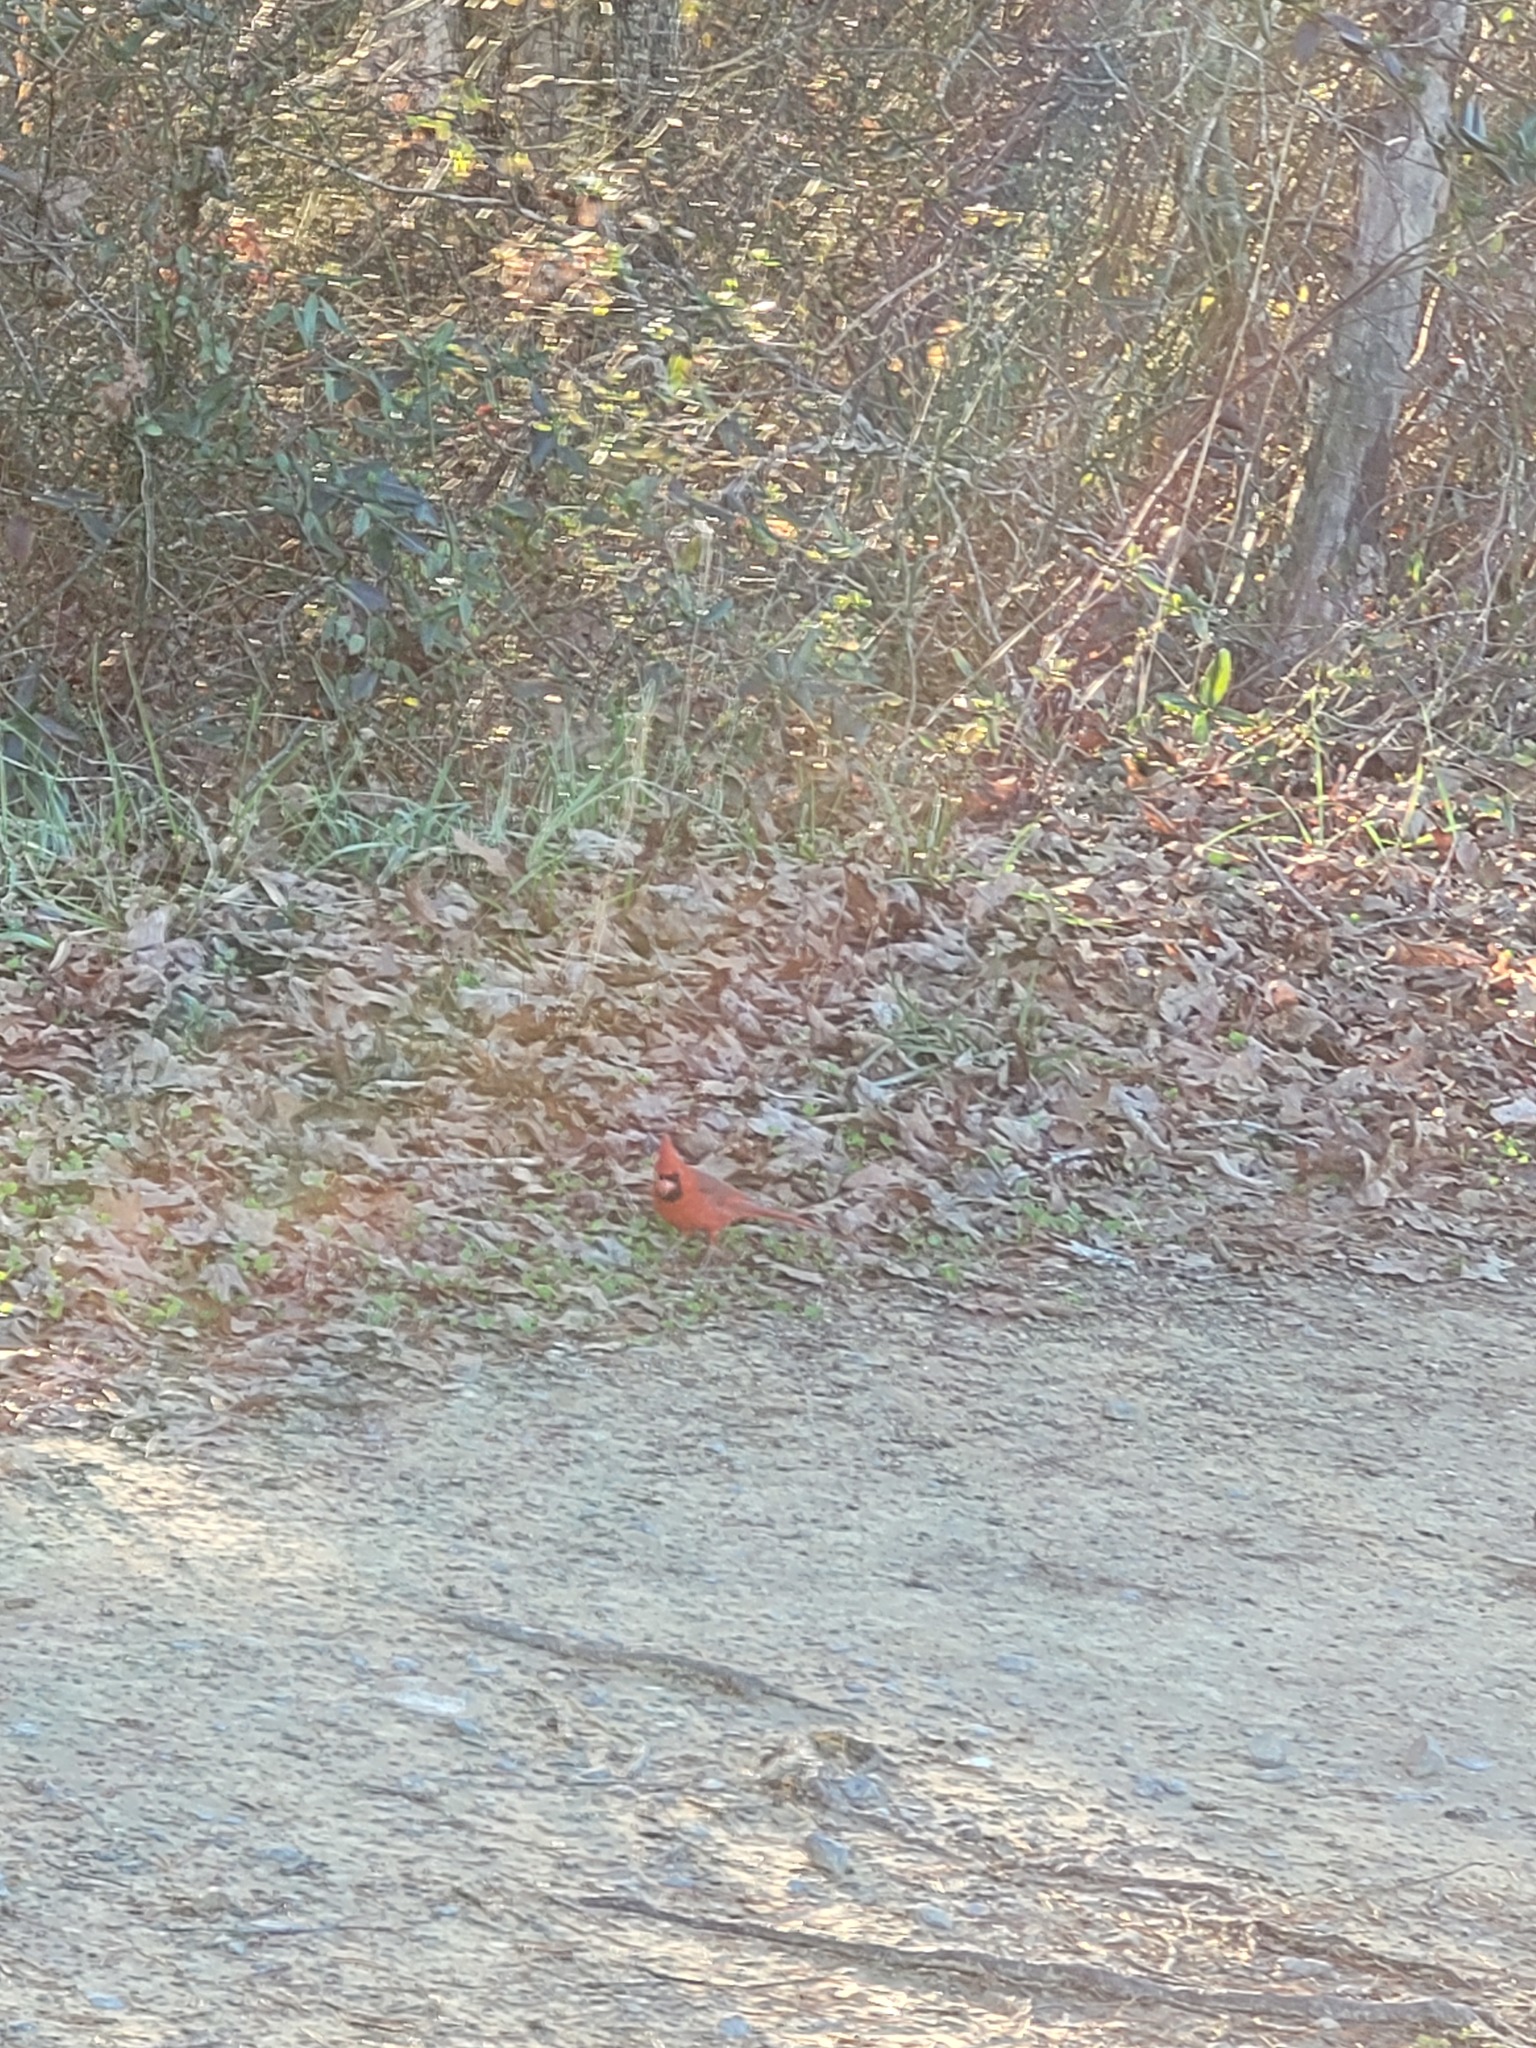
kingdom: Animalia
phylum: Chordata
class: Aves
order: Passeriformes
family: Cardinalidae
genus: Cardinalis
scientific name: Cardinalis cardinalis
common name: Northern cardinal
